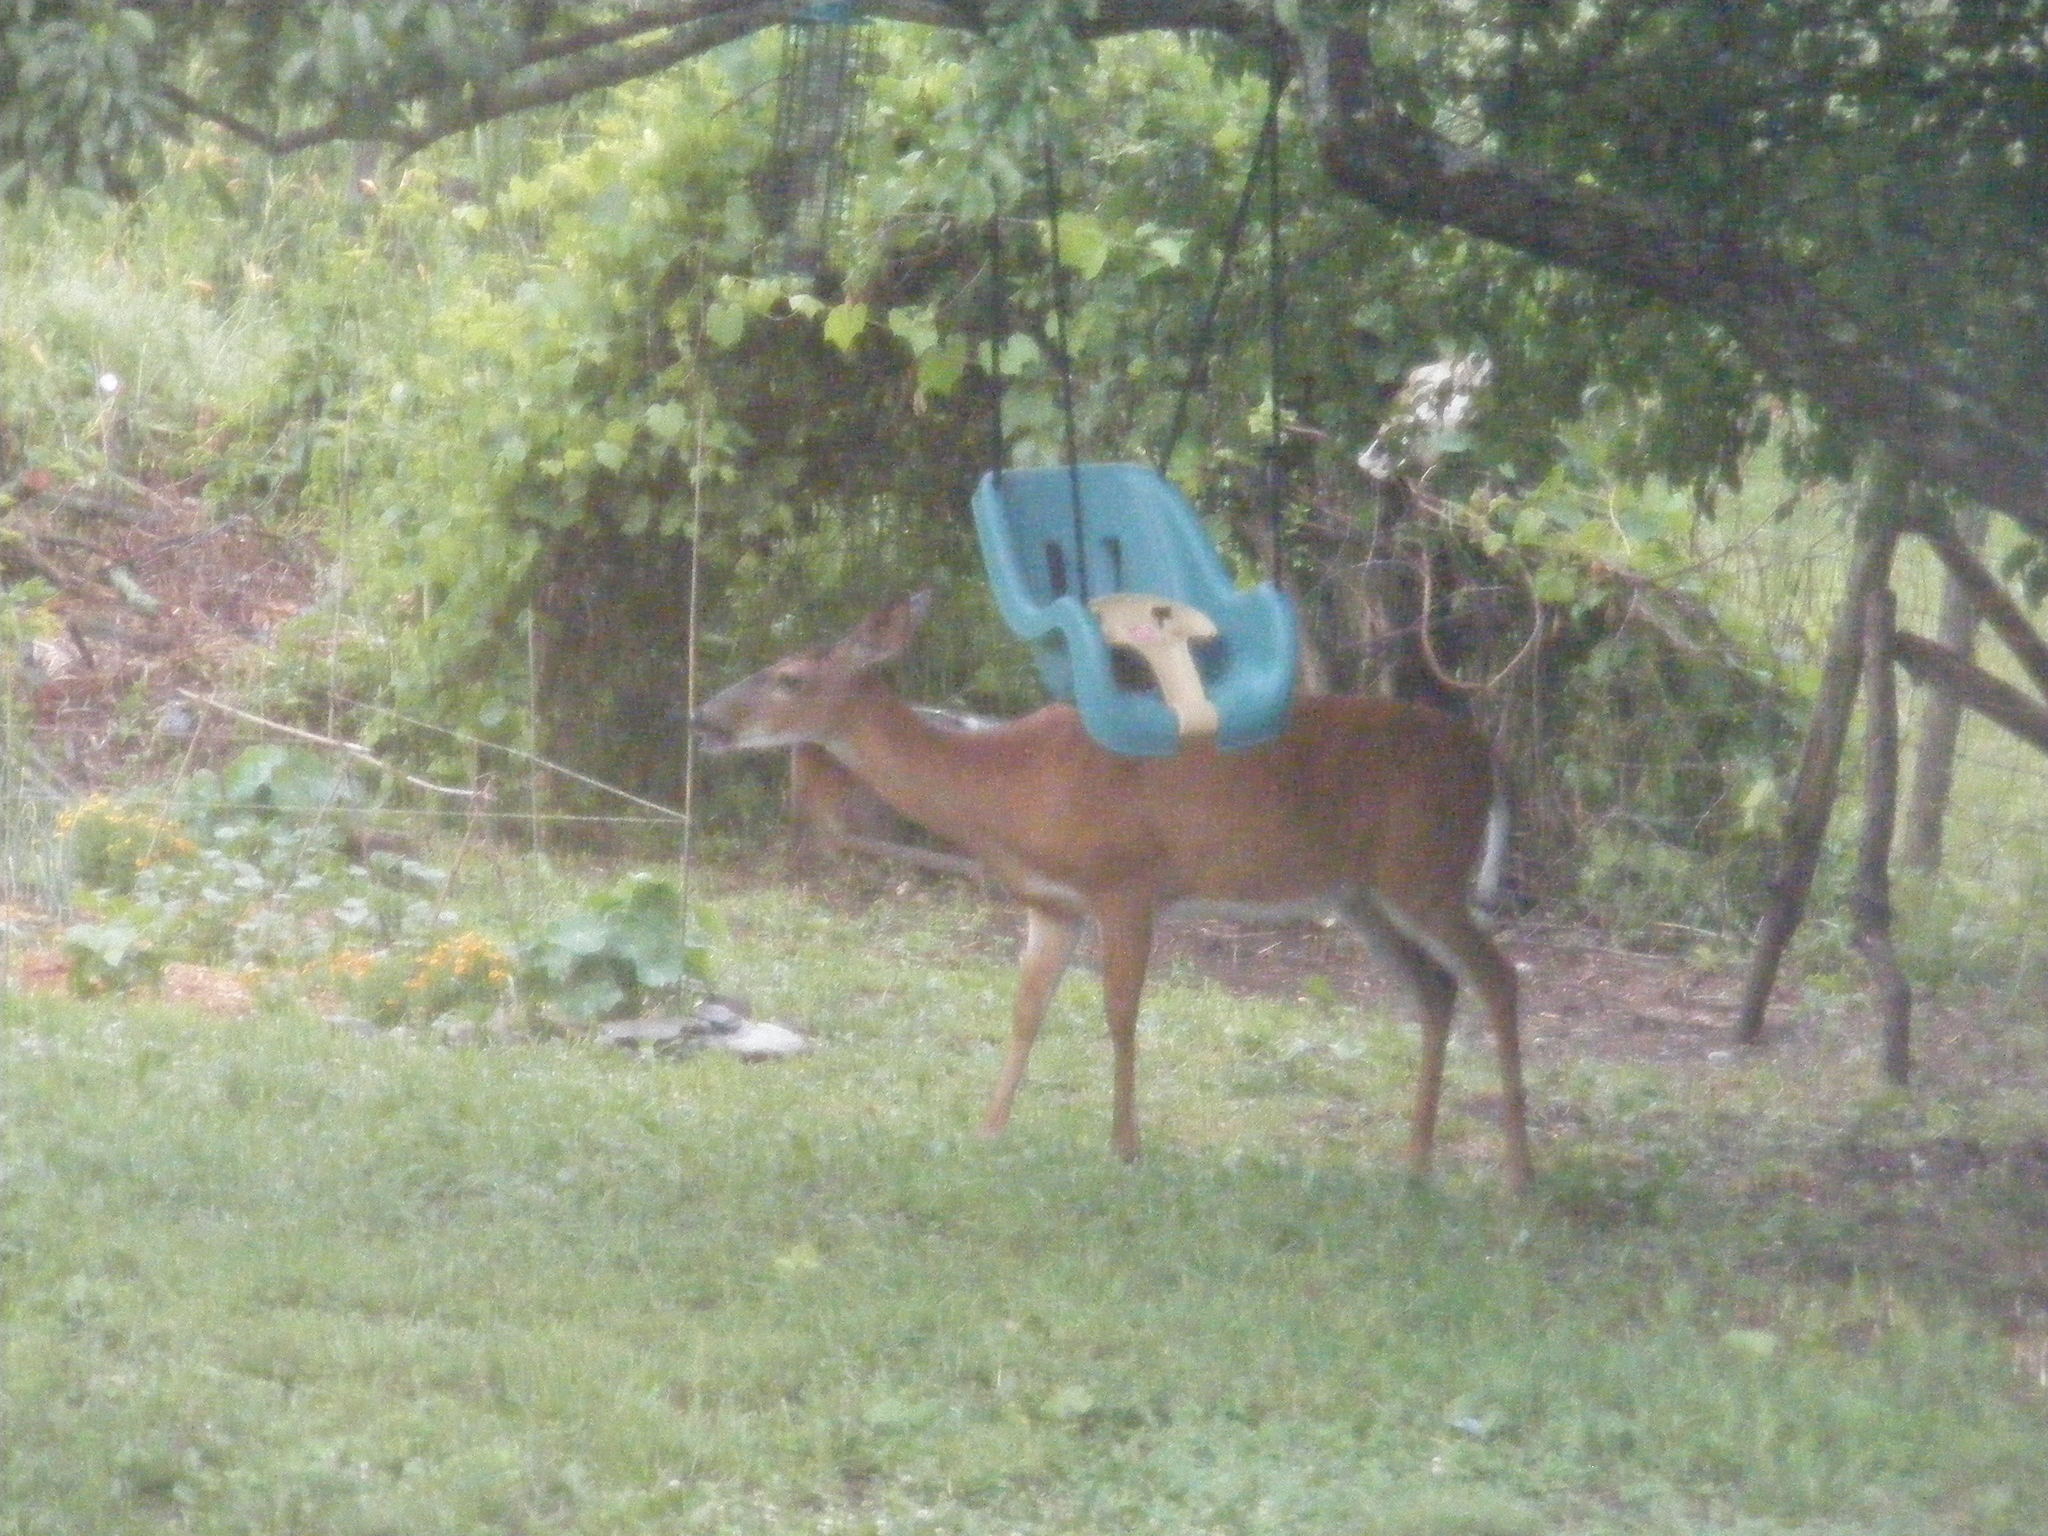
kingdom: Animalia
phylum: Chordata
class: Mammalia
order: Artiodactyla
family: Cervidae
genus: Odocoileus
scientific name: Odocoileus virginianus
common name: White-tailed deer
